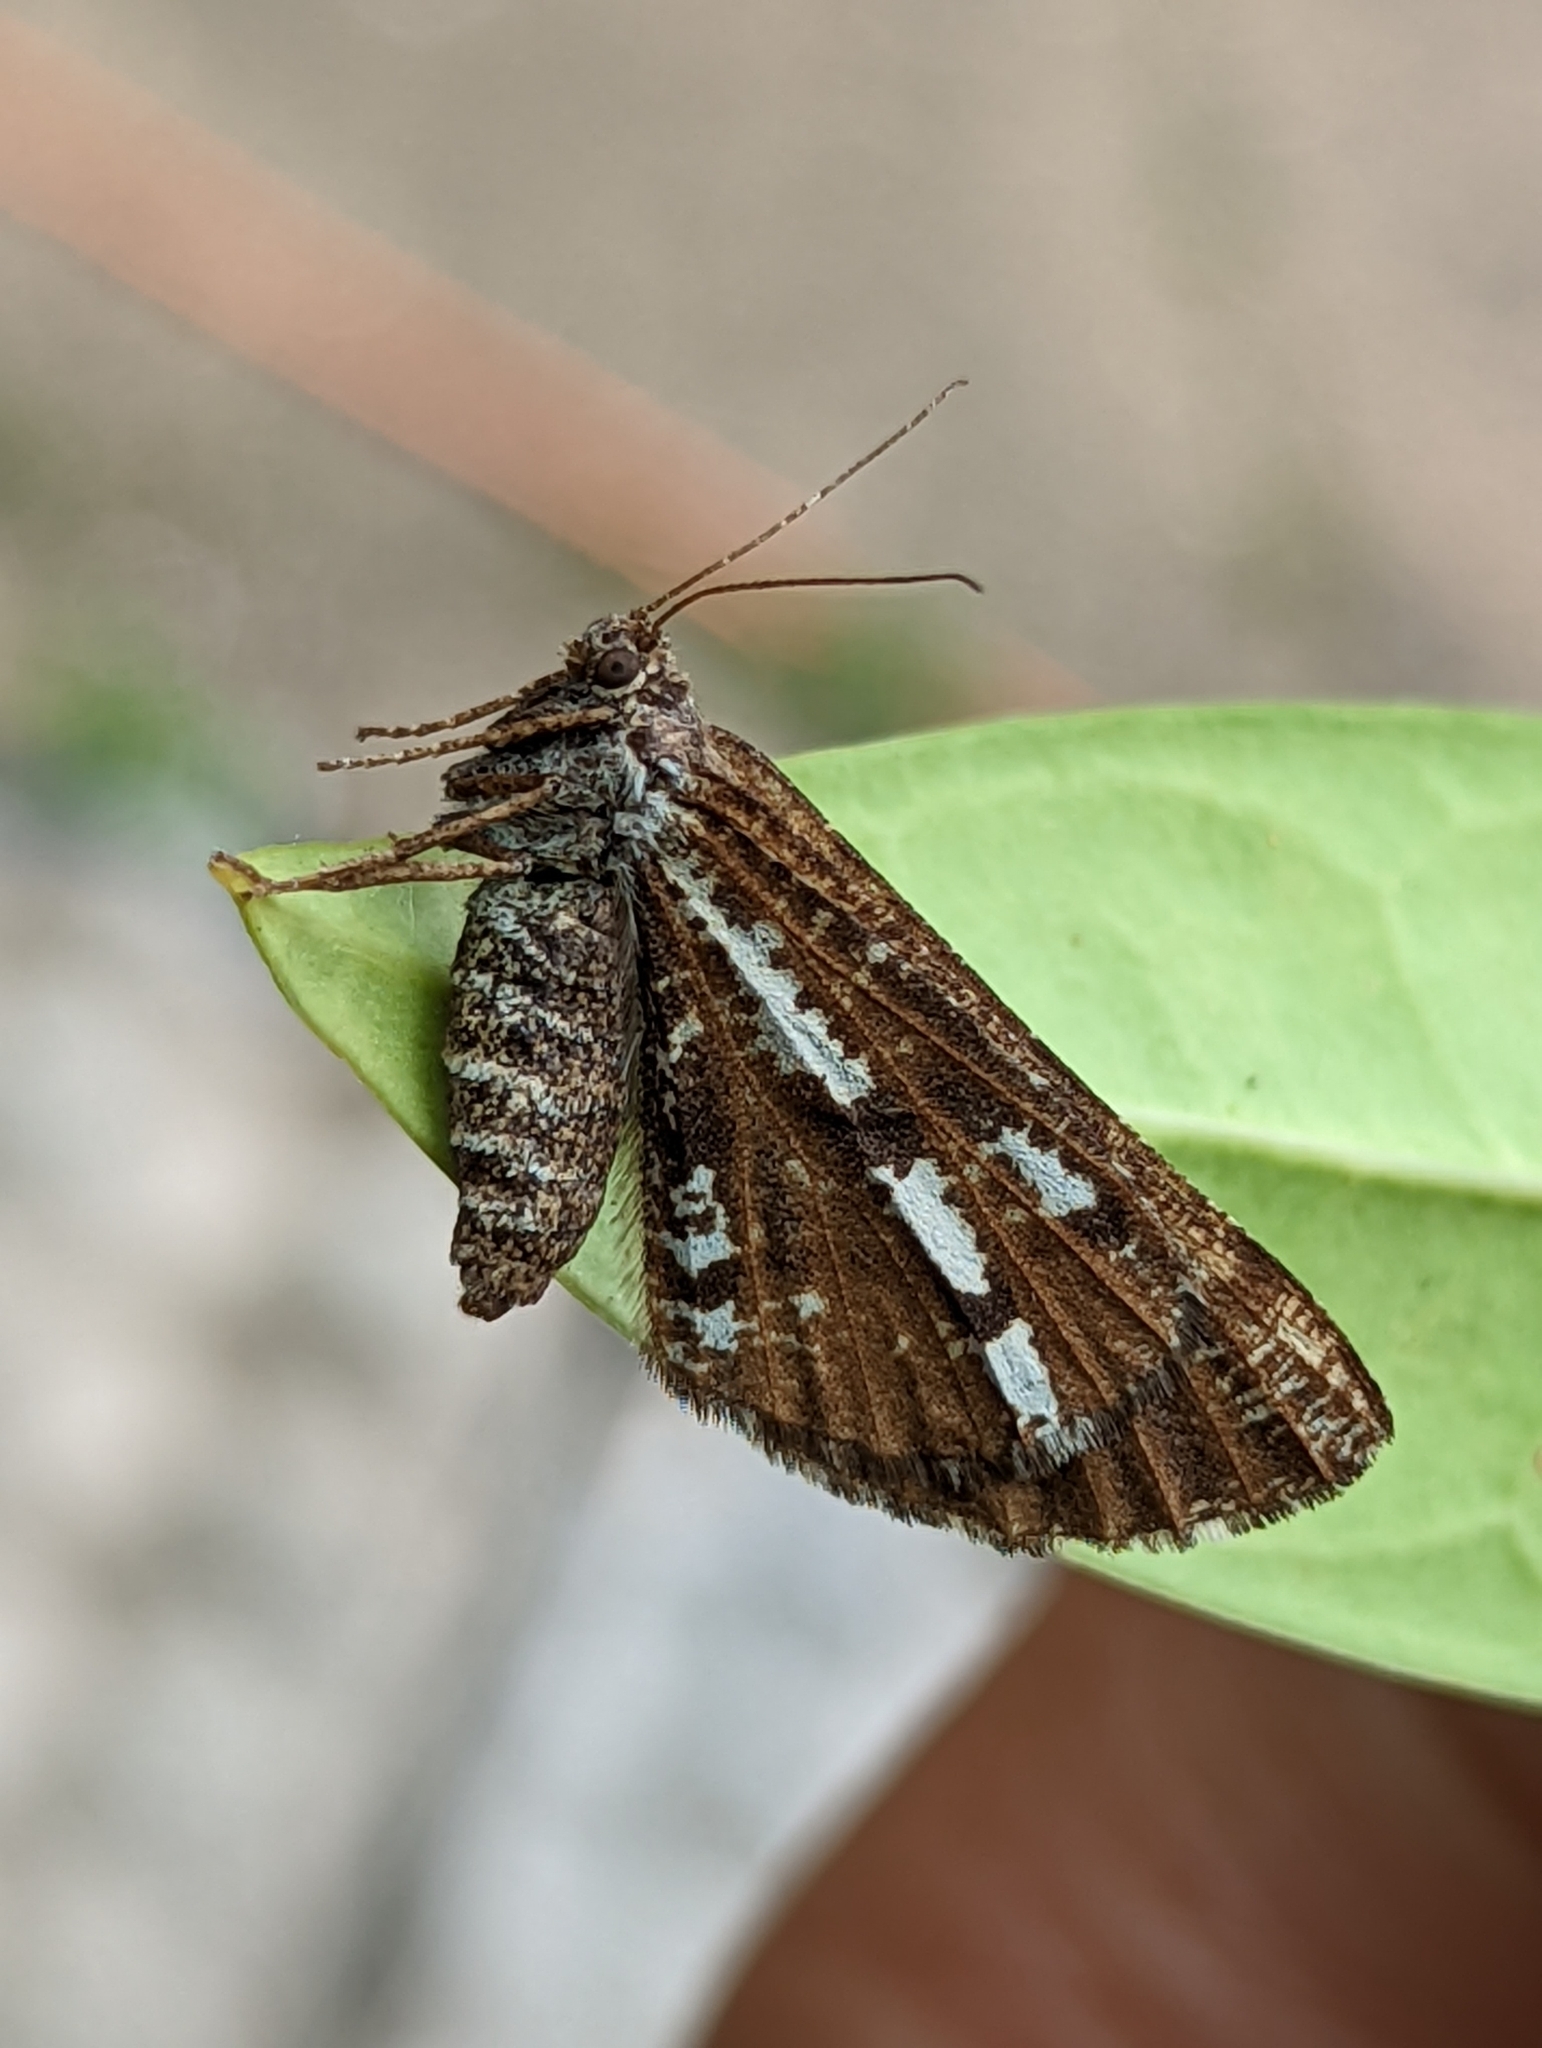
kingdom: Animalia
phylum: Arthropoda
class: Insecta
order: Lepidoptera
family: Geometridae
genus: Bupalus
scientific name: Bupalus piniaria
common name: Bordered white
